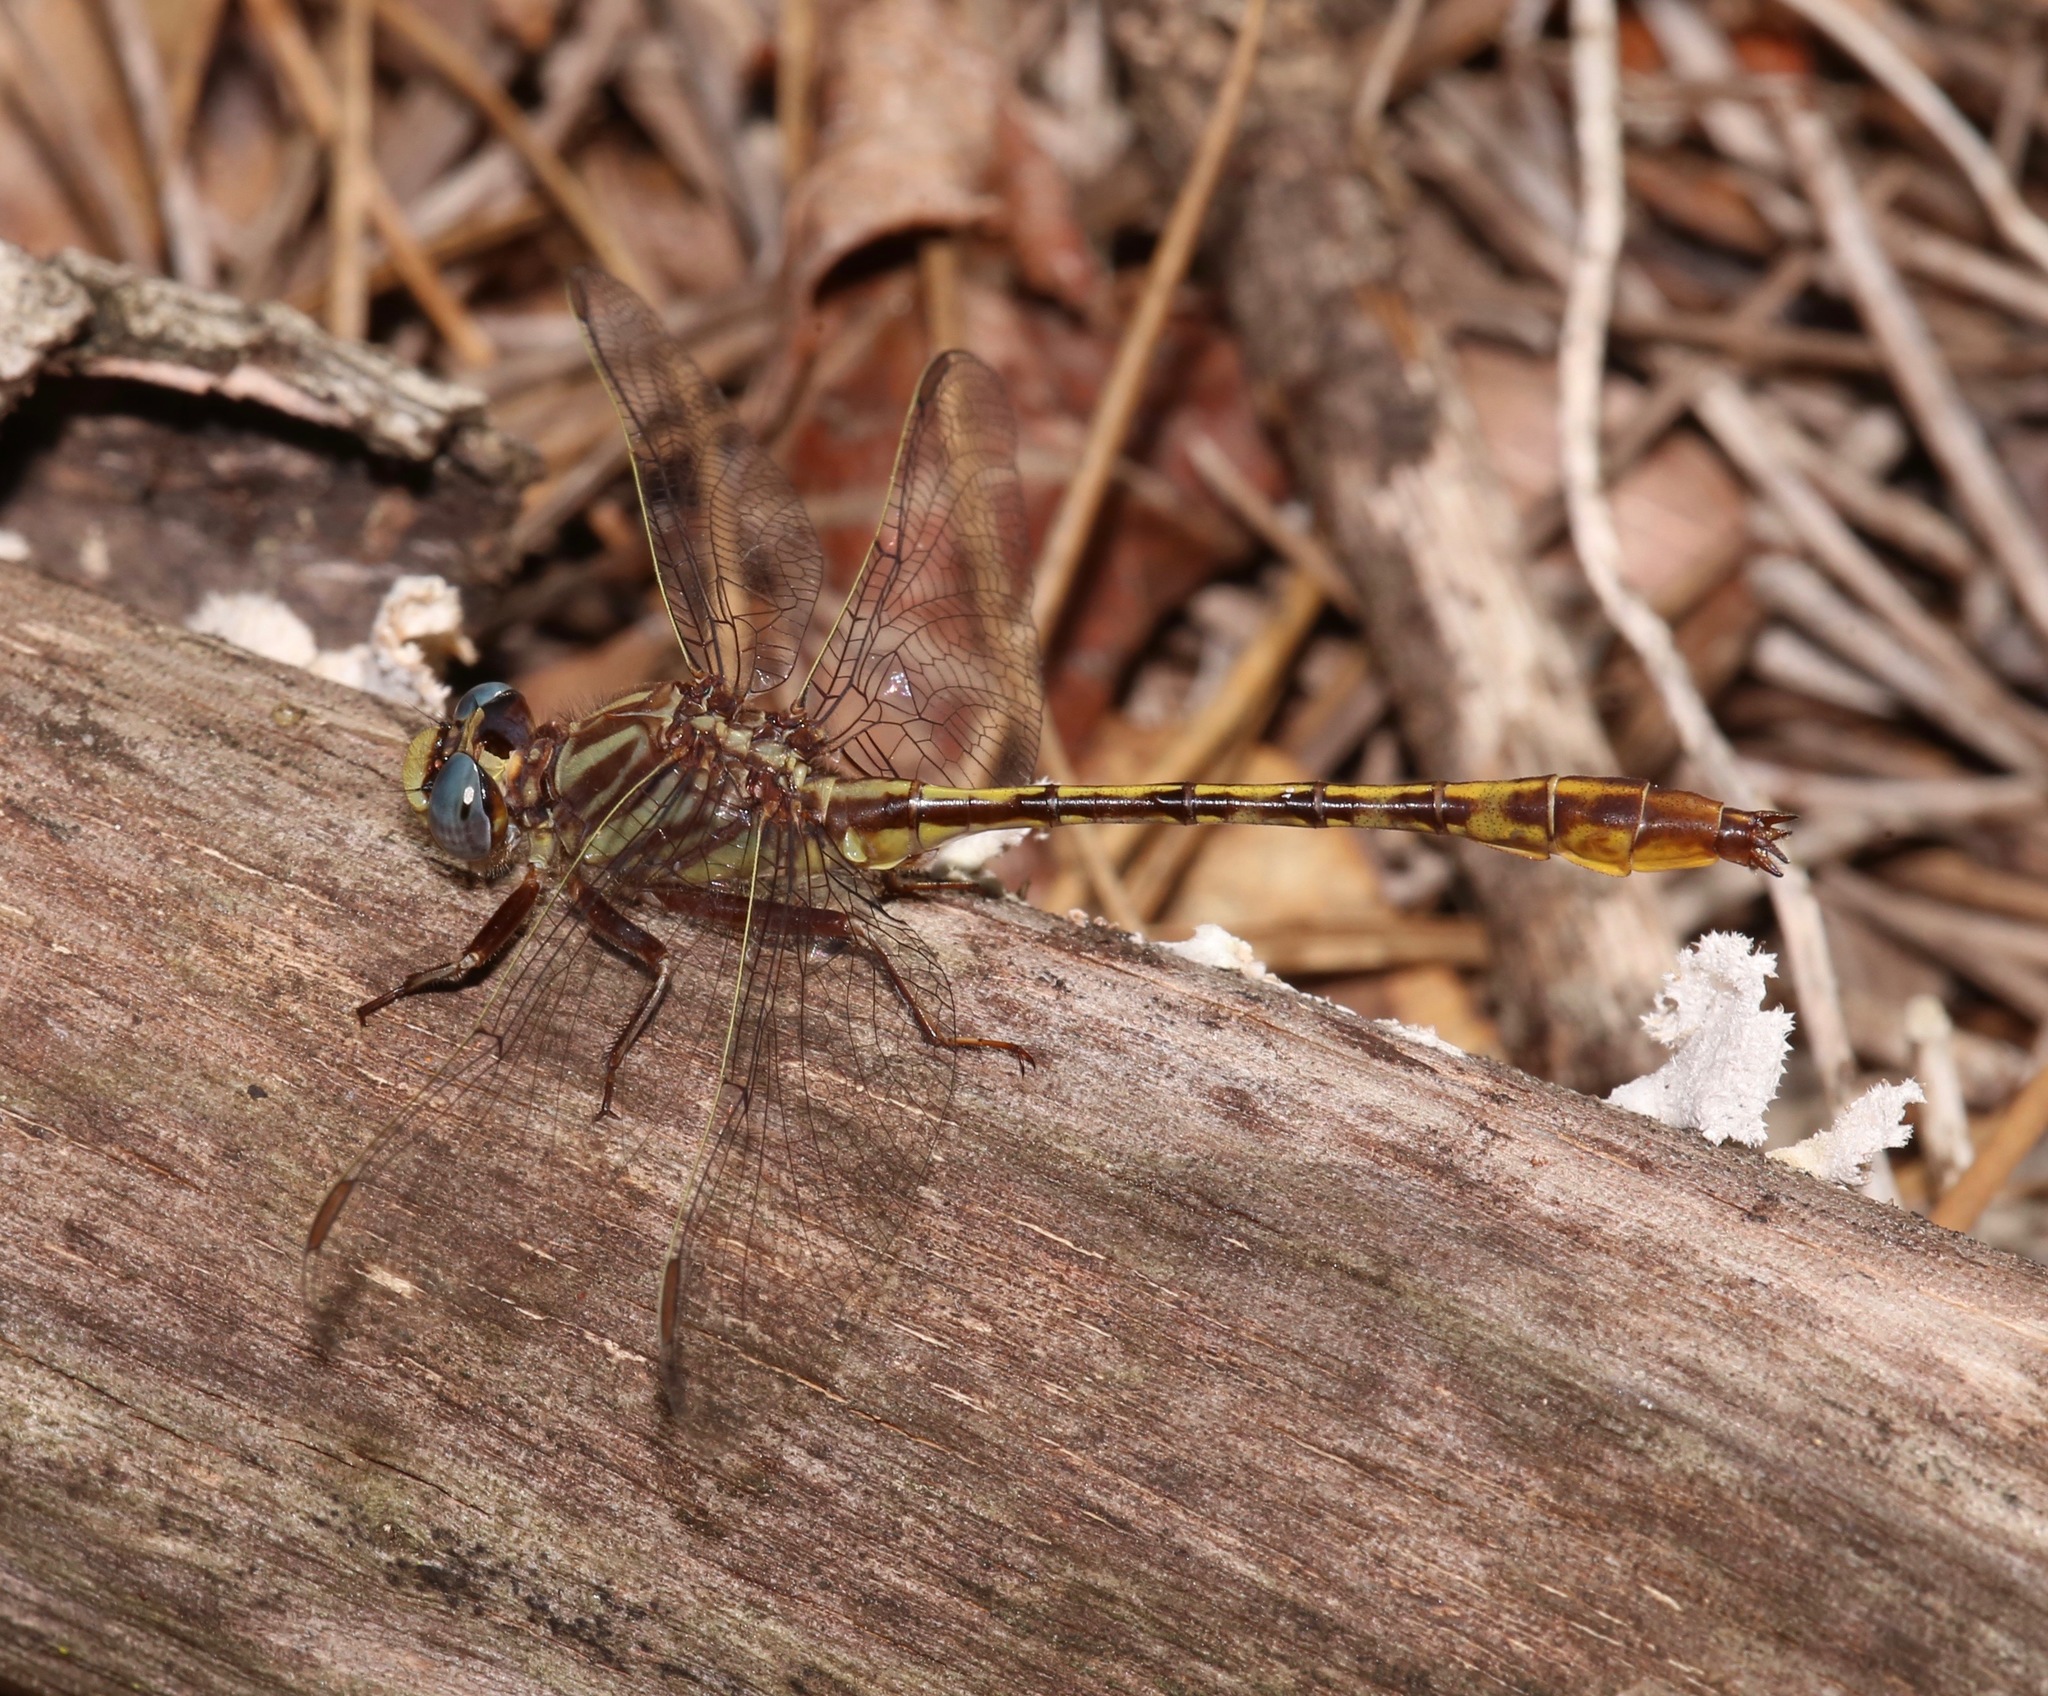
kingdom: Animalia
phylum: Arthropoda
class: Insecta
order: Odonata
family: Gomphidae
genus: Phanogomphus
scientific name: Phanogomphus minutus
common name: Cypress clubtail
